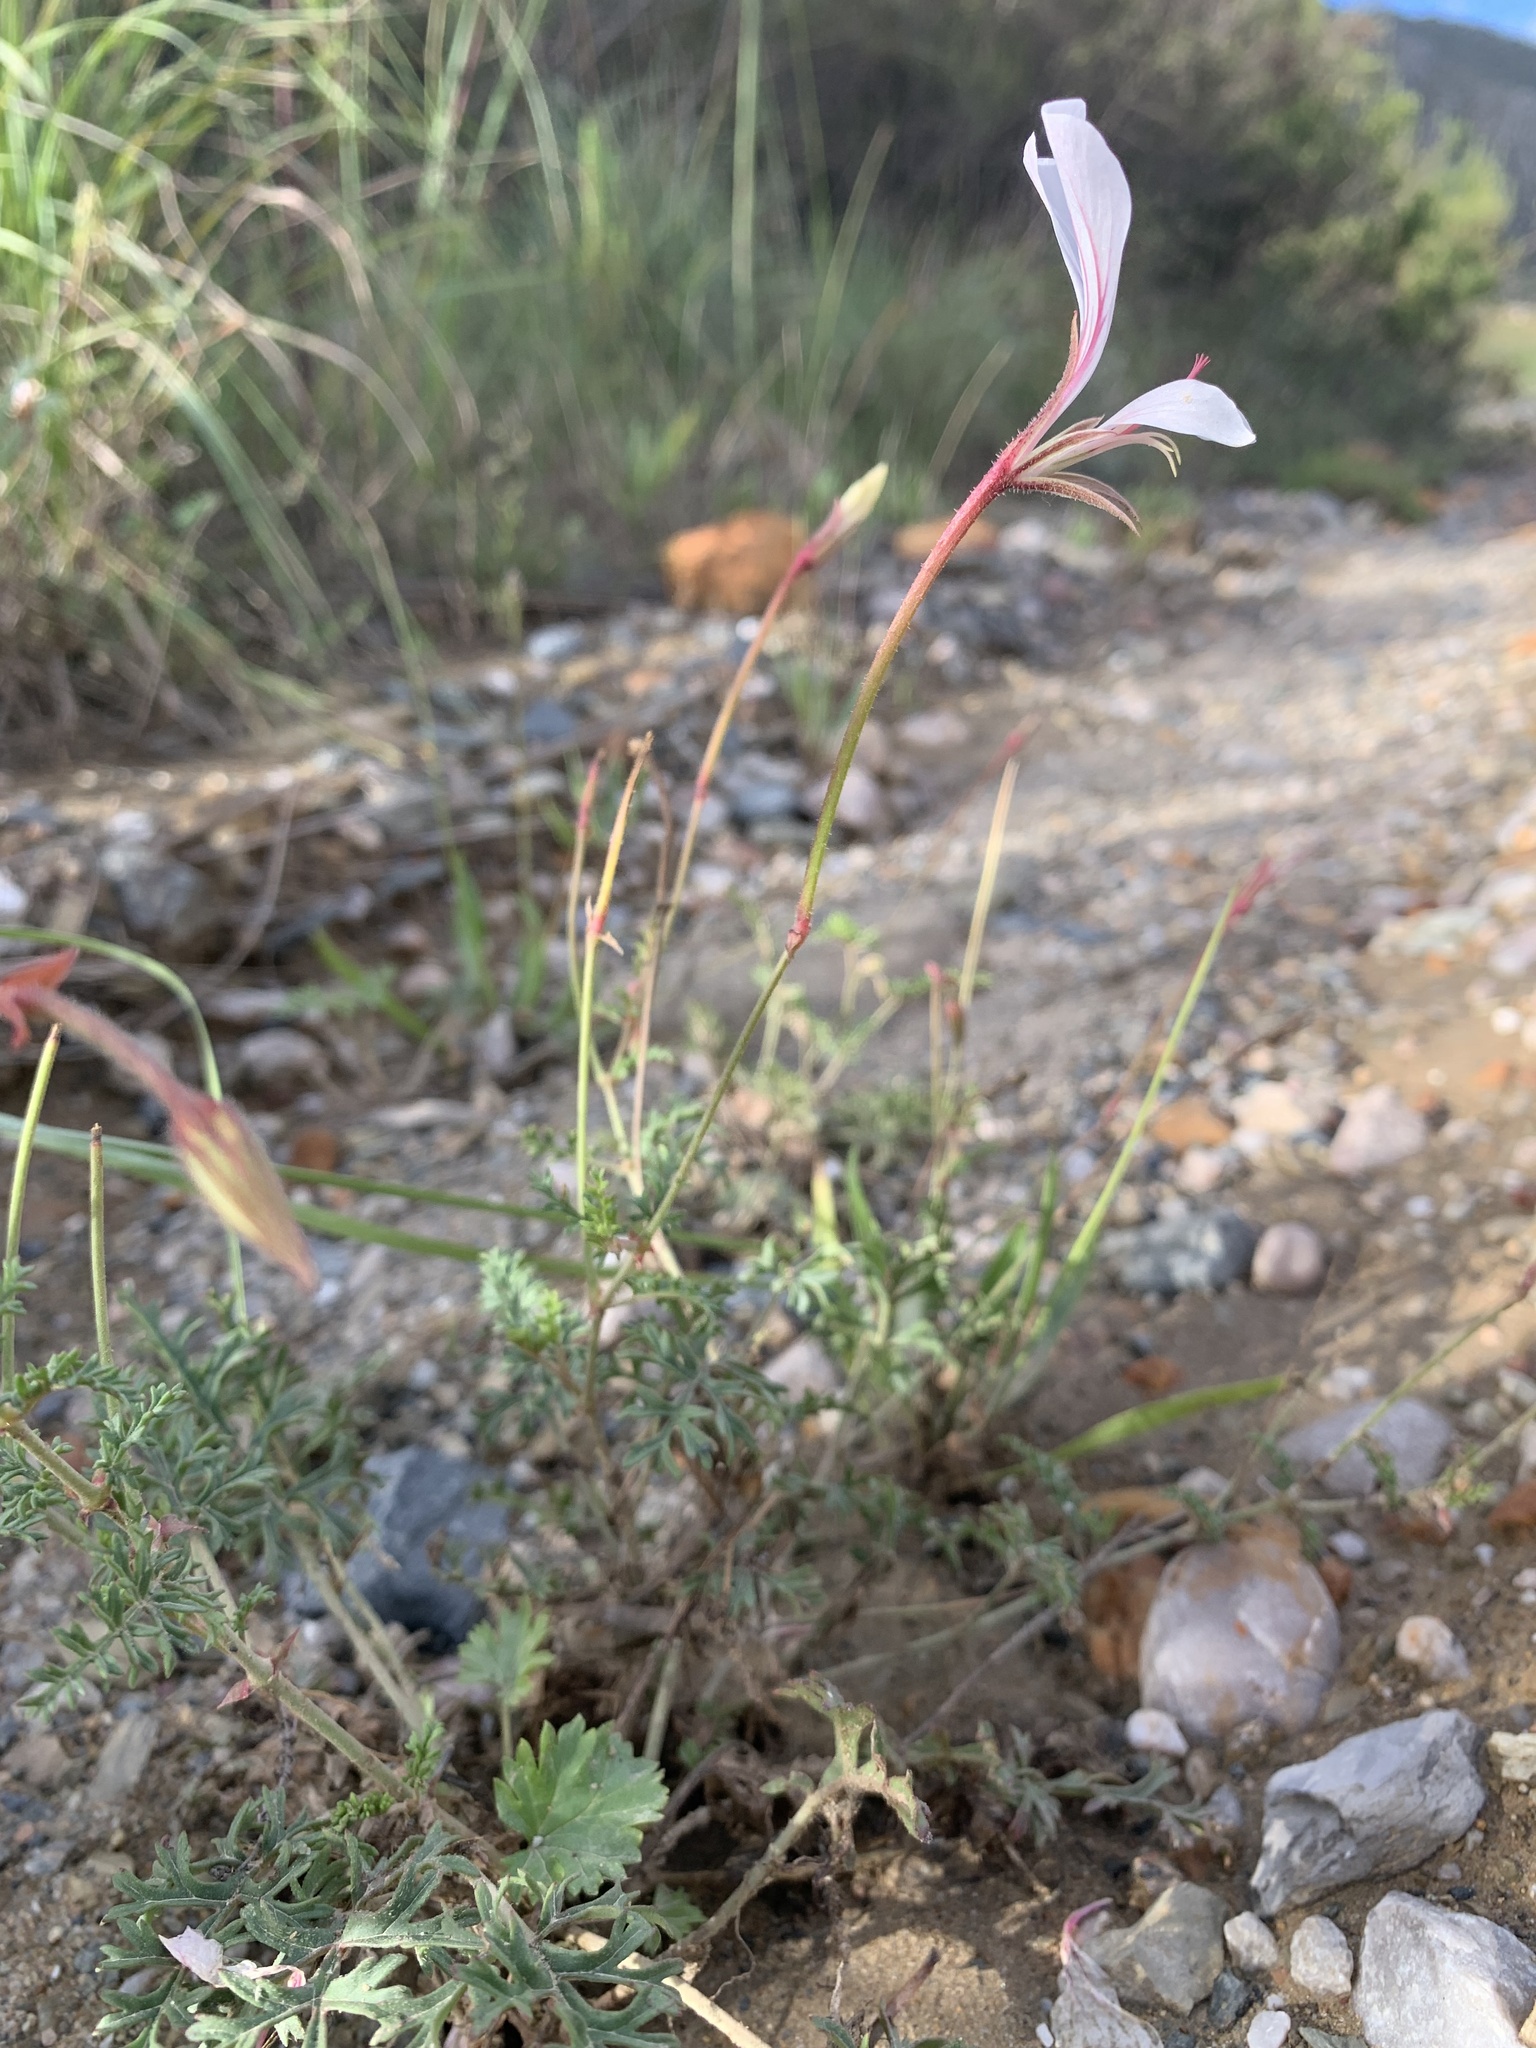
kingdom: Plantae
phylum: Tracheophyta
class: Magnoliopsida
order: Geraniales
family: Geraniaceae
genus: Pelargonium
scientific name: Pelargonium caucalifolium
